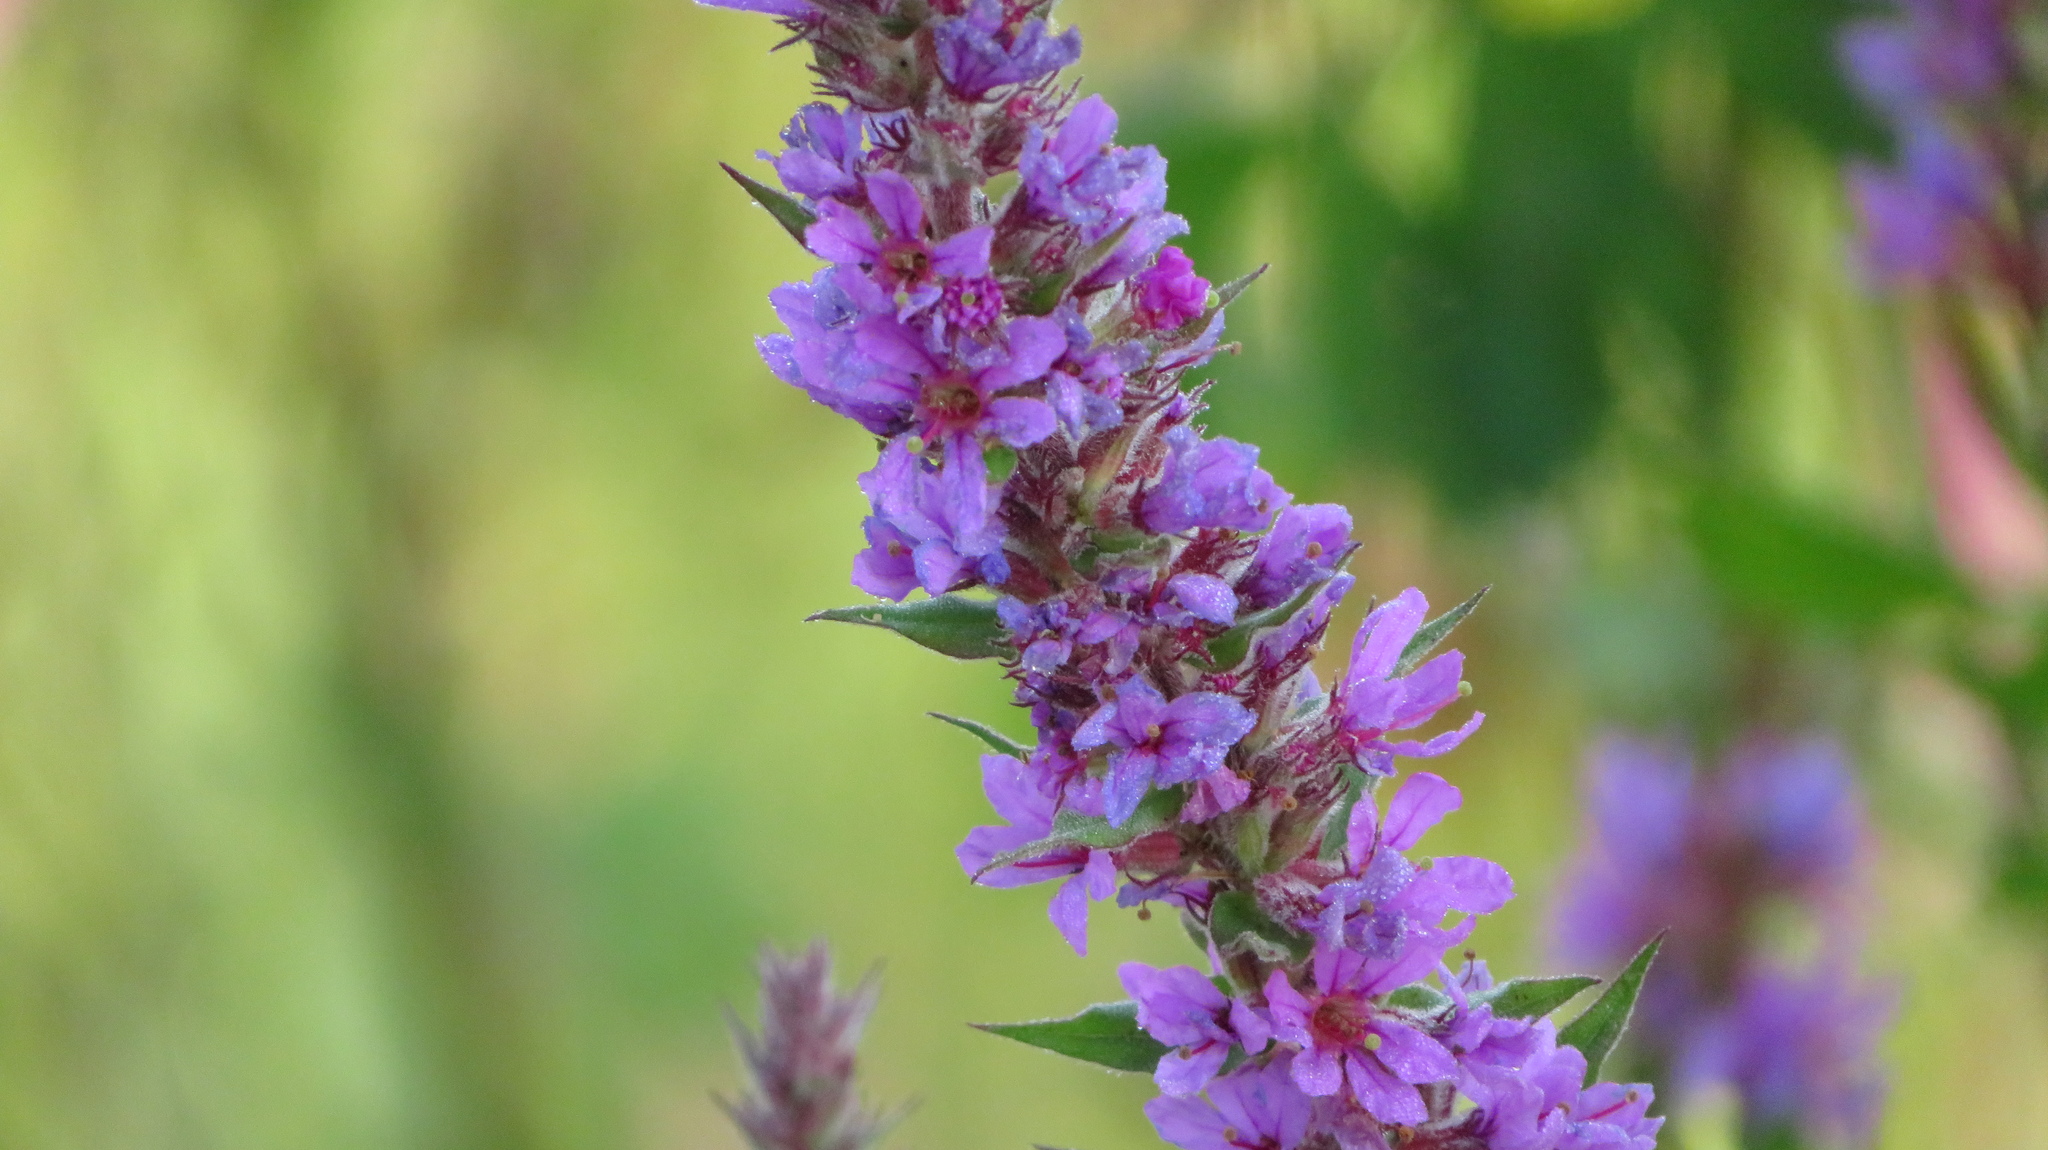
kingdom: Plantae
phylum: Tracheophyta
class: Magnoliopsida
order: Myrtales
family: Lythraceae
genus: Lythrum
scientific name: Lythrum salicaria
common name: Purple loosestrife
